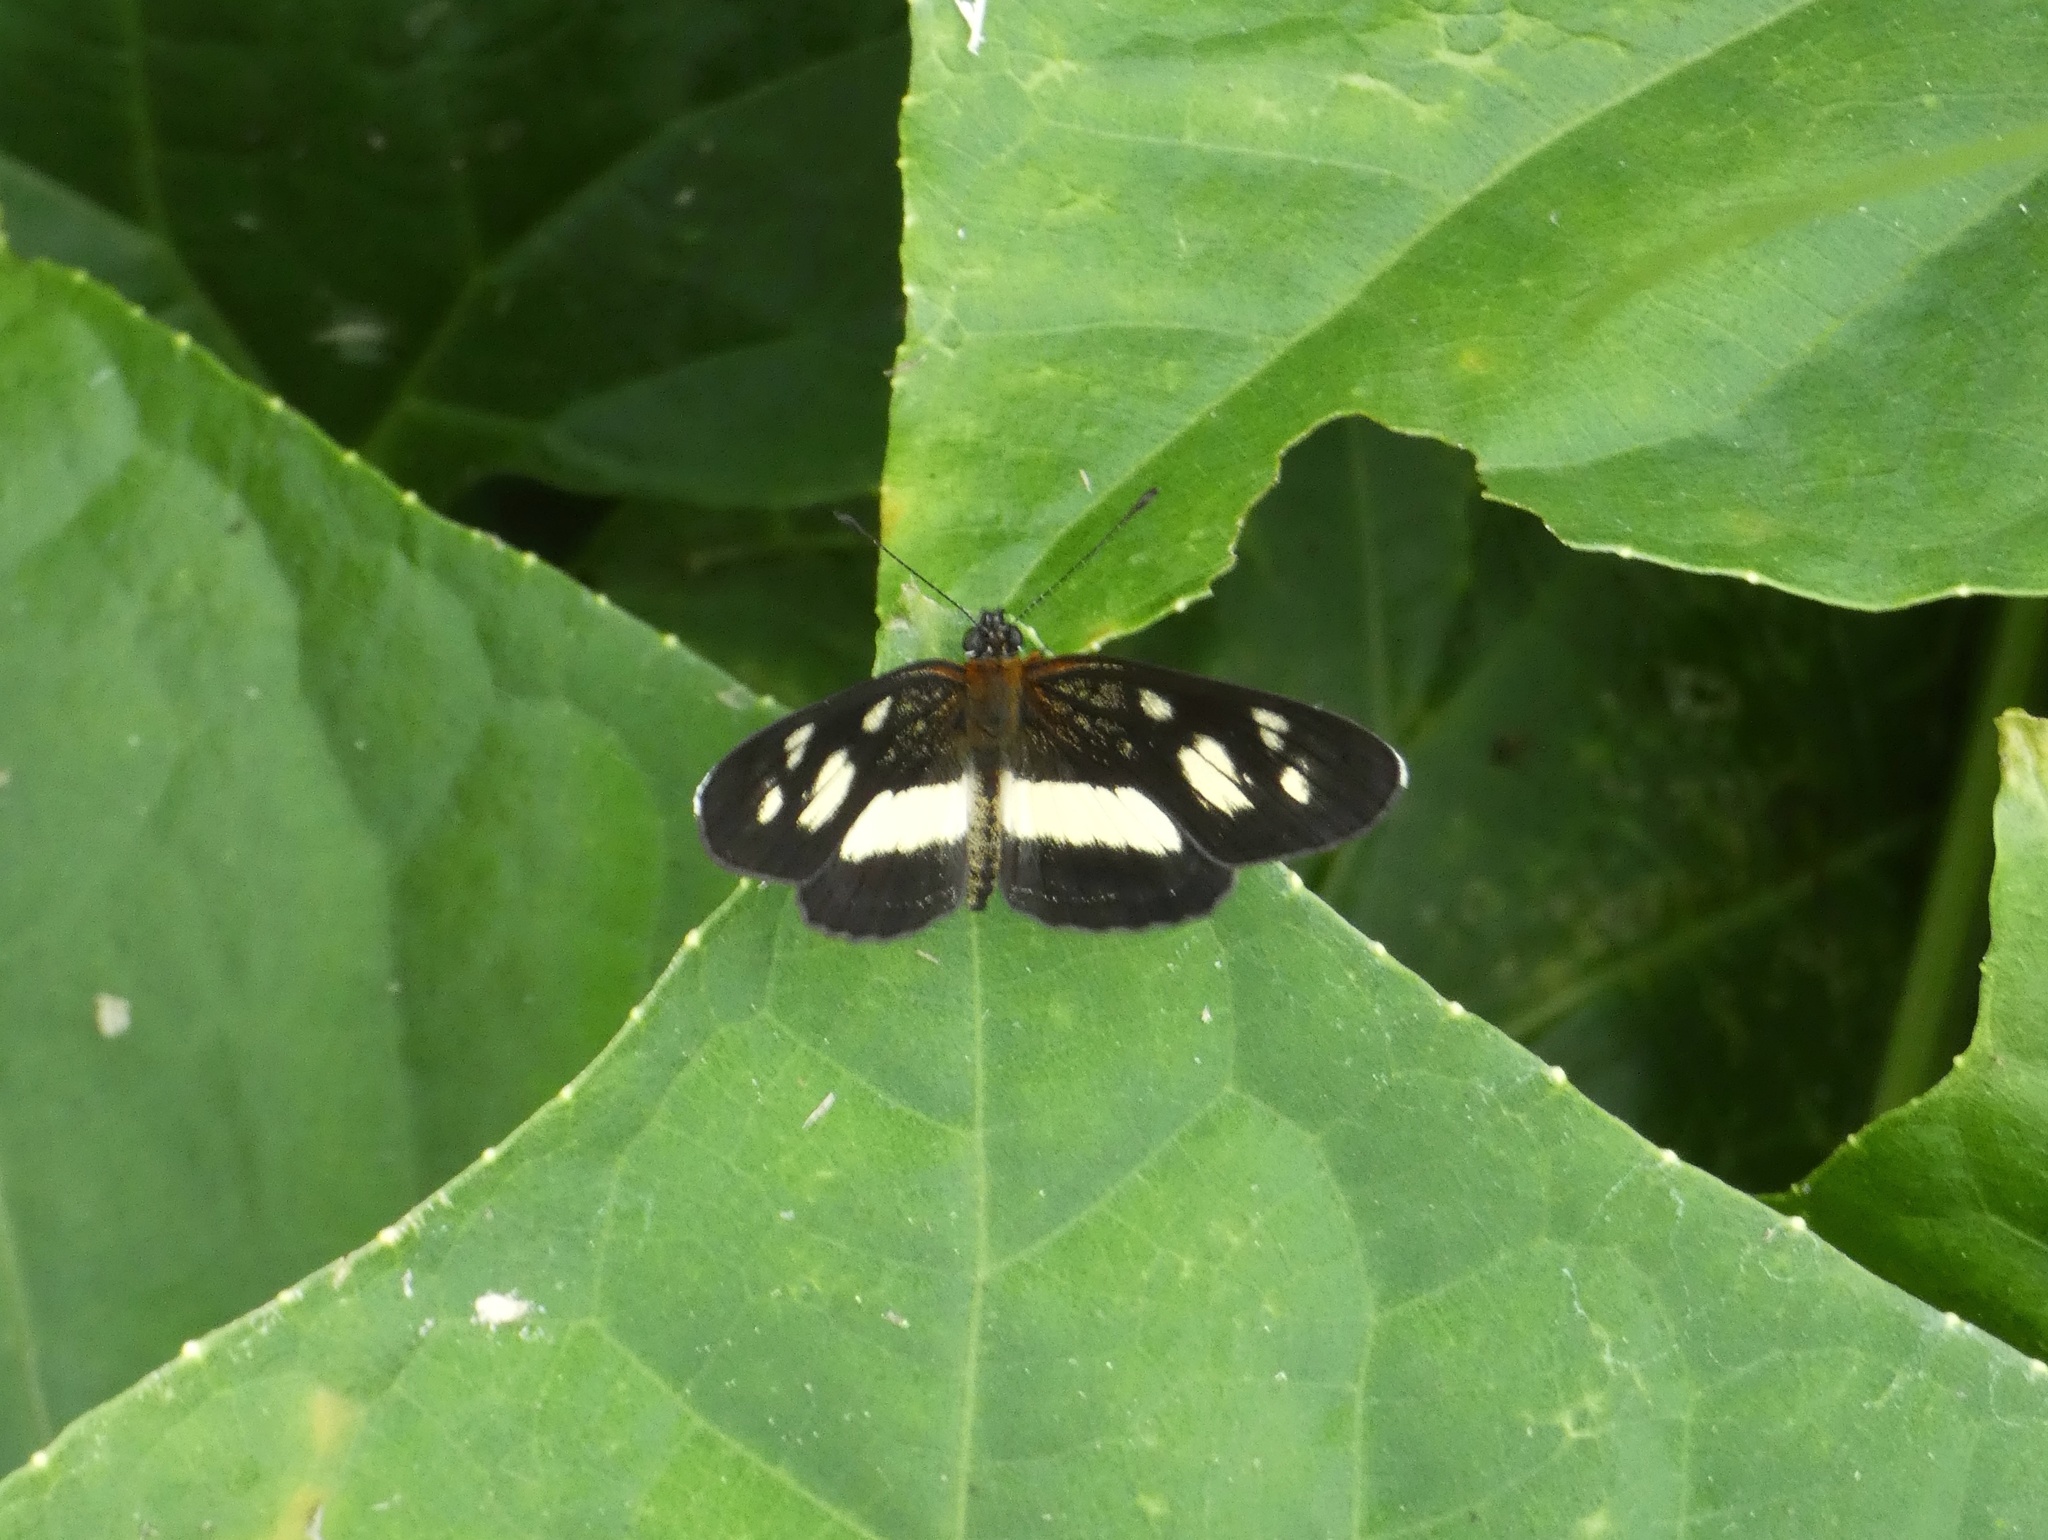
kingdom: Animalia
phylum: Arthropoda
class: Insecta
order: Lepidoptera
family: Nymphalidae
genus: Eresia
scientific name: Eresia clio
